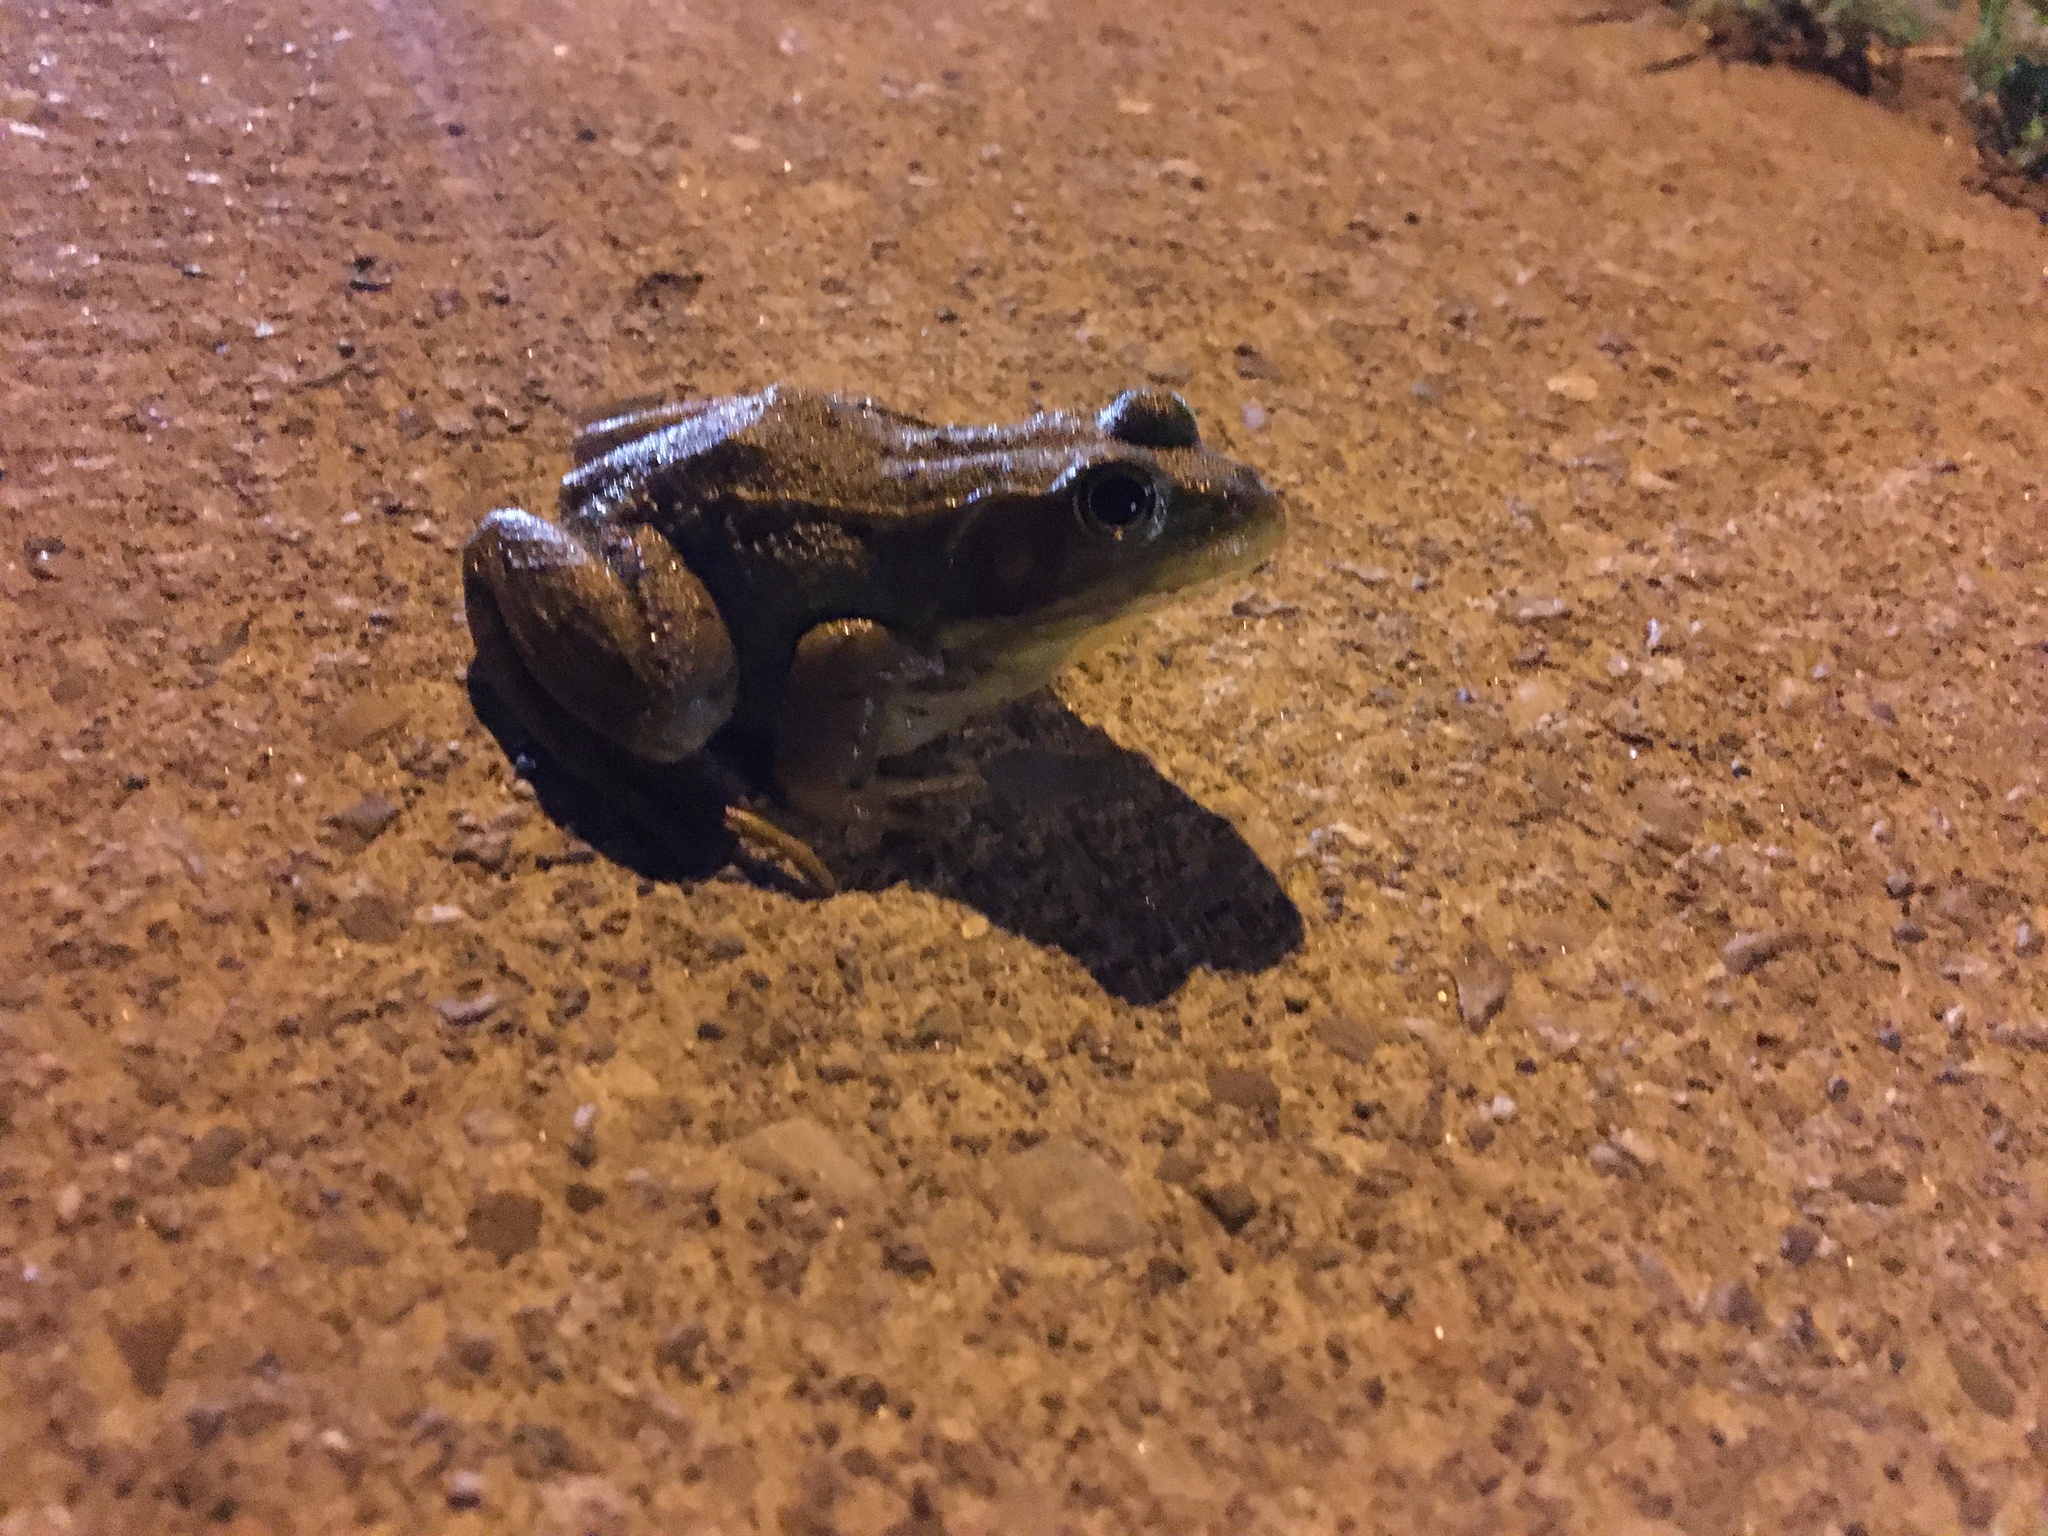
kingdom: Animalia
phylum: Chordata
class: Amphibia
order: Anura
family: Ranidae
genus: Lithobates
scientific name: Lithobates clamitans
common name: Green frog
